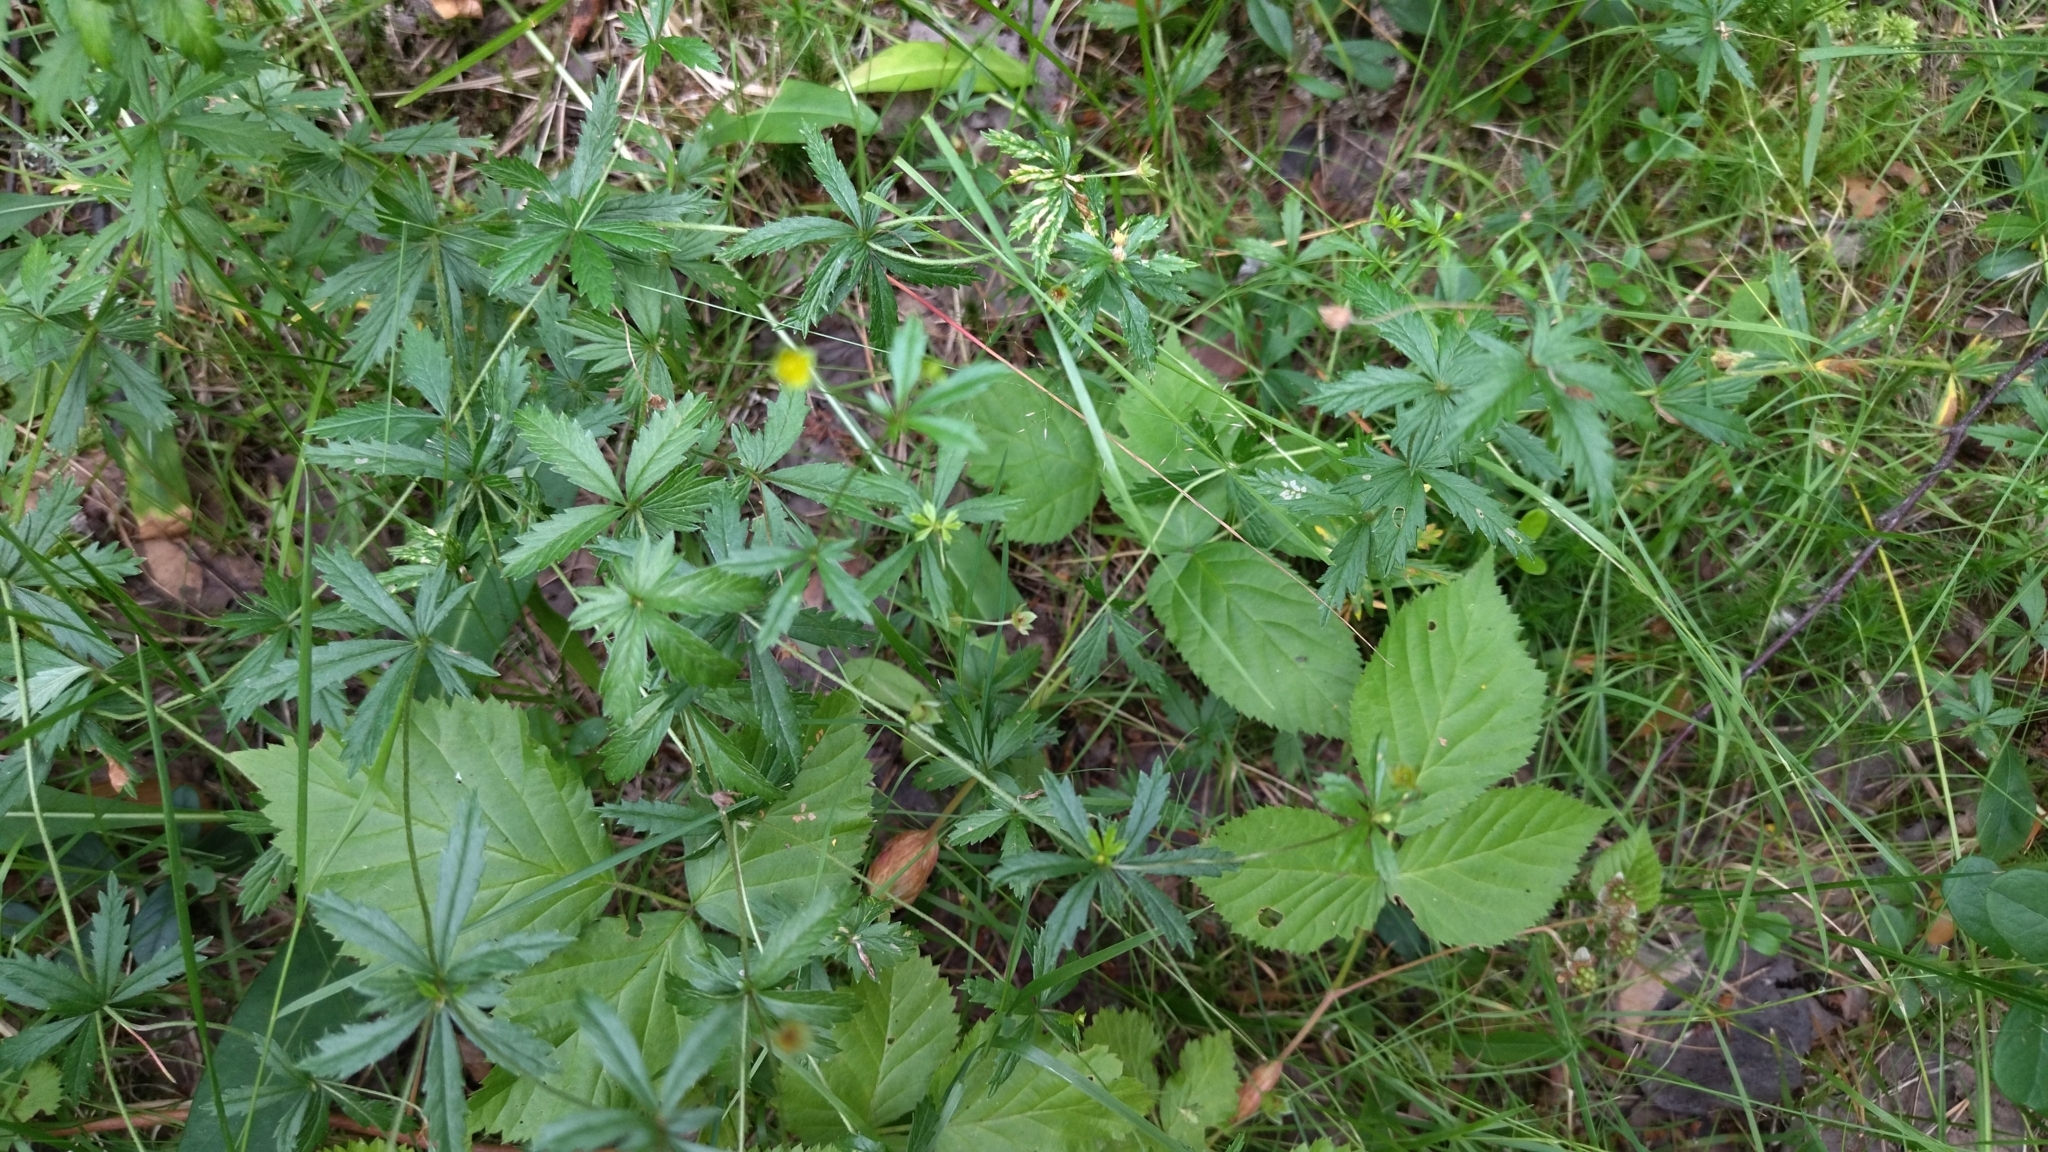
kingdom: Plantae
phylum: Tracheophyta
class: Magnoliopsida
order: Rosales
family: Rosaceae
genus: Potentilla
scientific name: Potentilla erecta
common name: Tormentil
